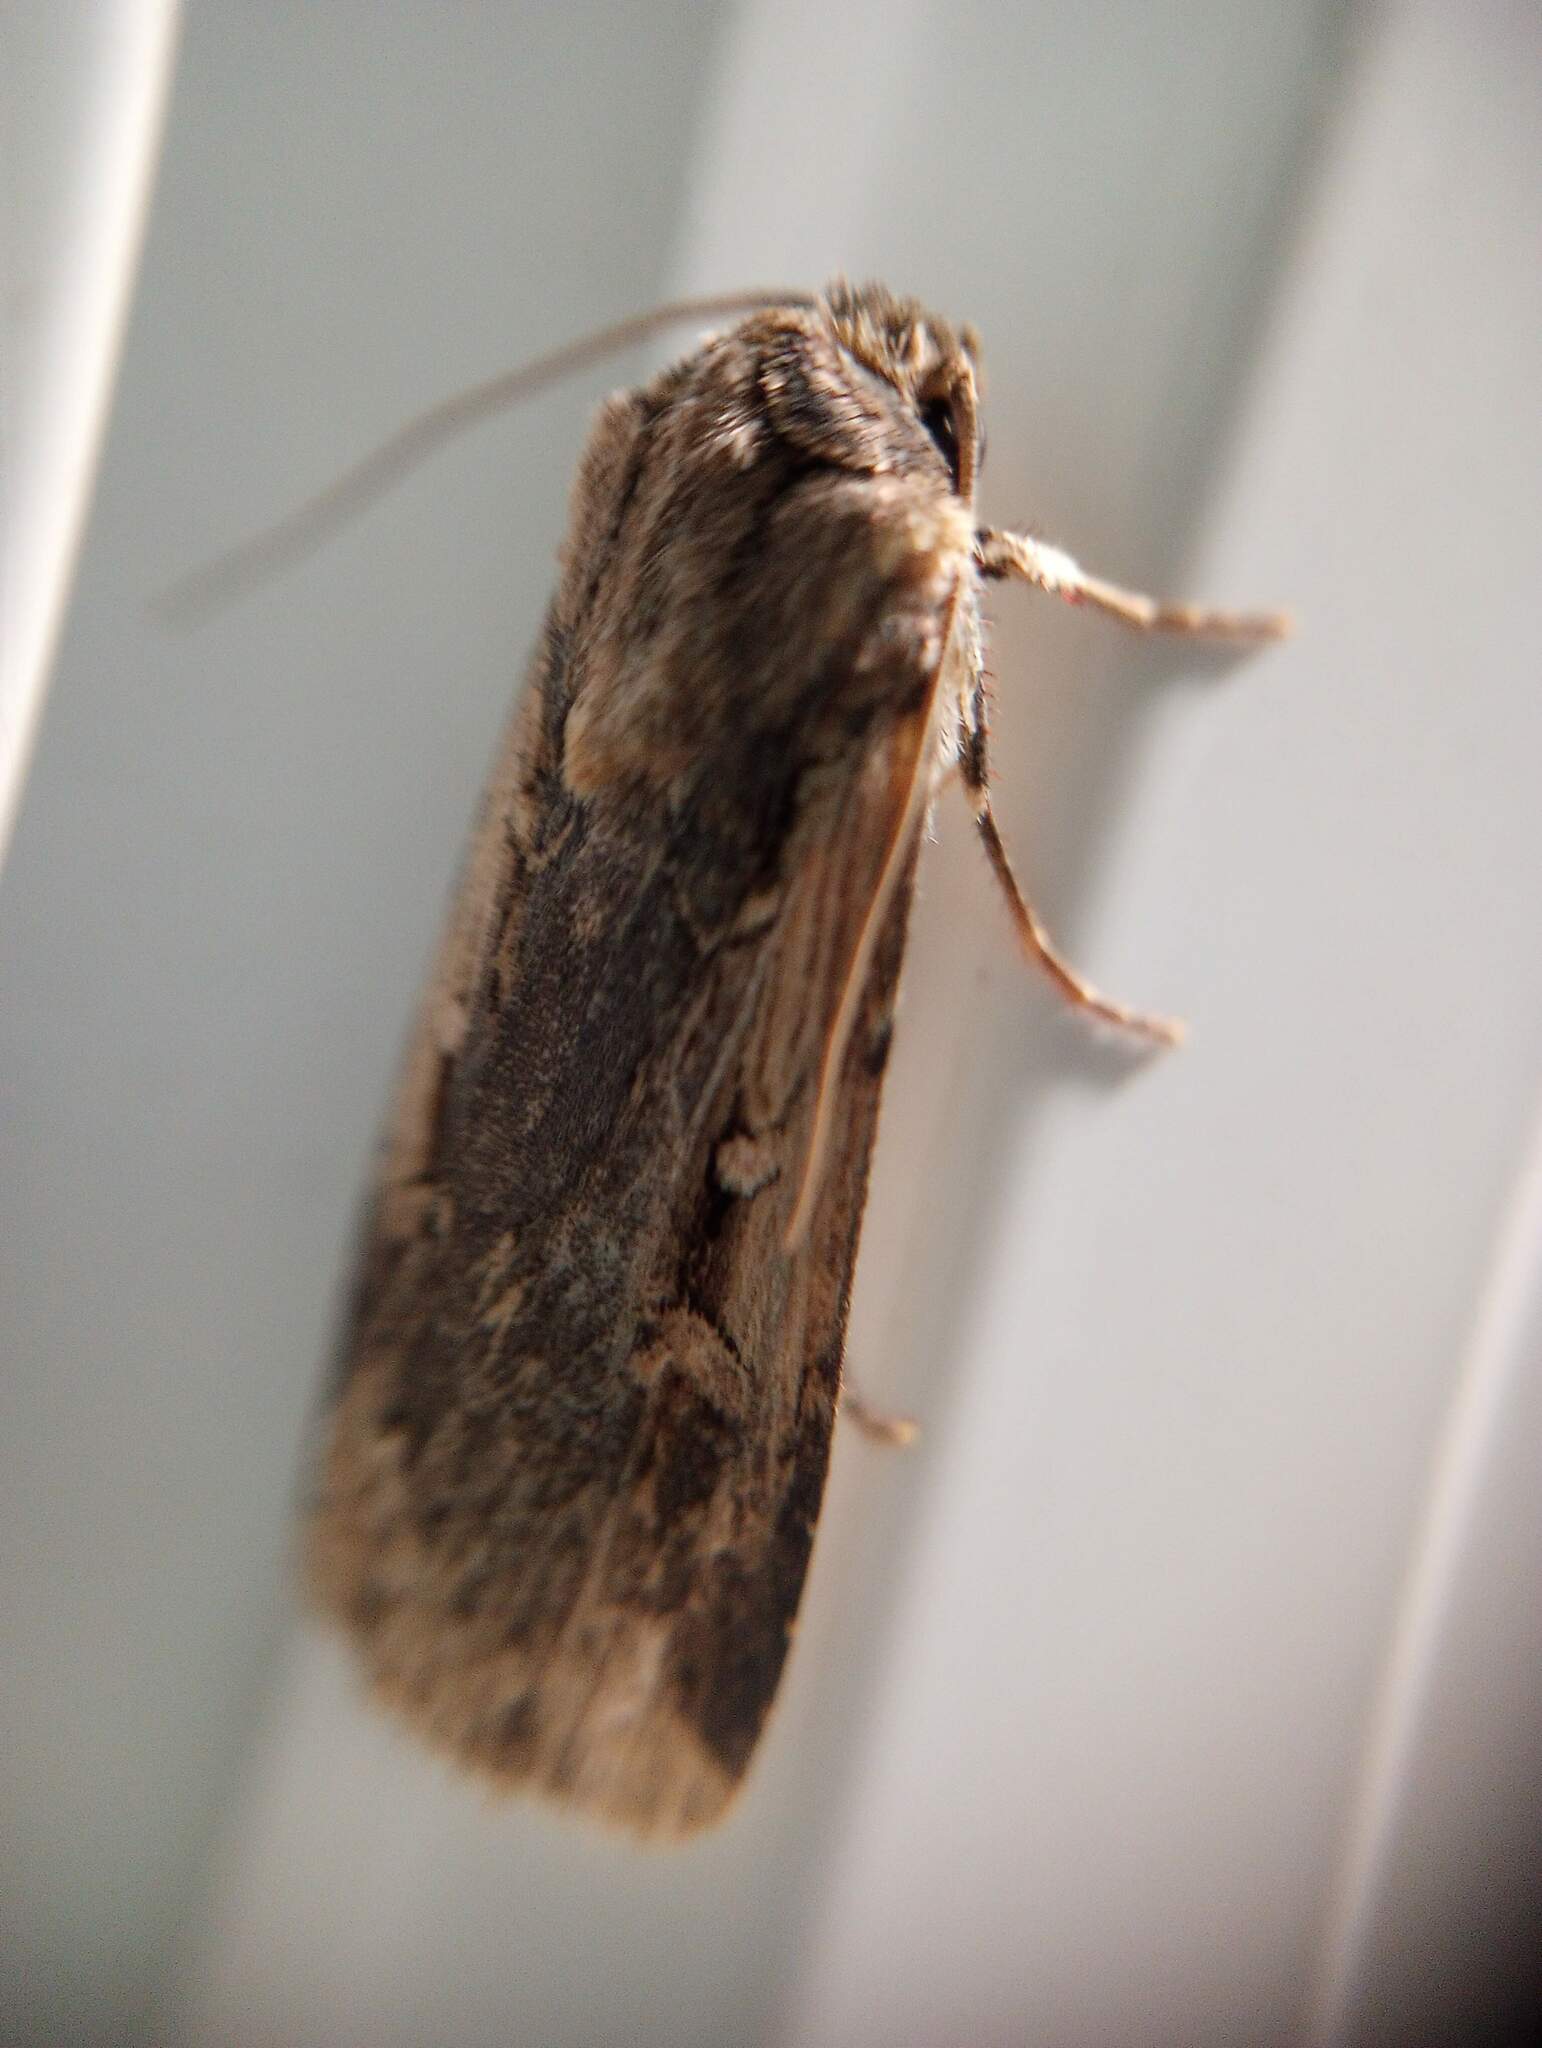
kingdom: Animalia
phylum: Arthropoda
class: Insecta
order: Lepidoptera
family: Noctuidae
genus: Feltia
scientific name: Feltia subterranea
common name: Granulate cutworm
